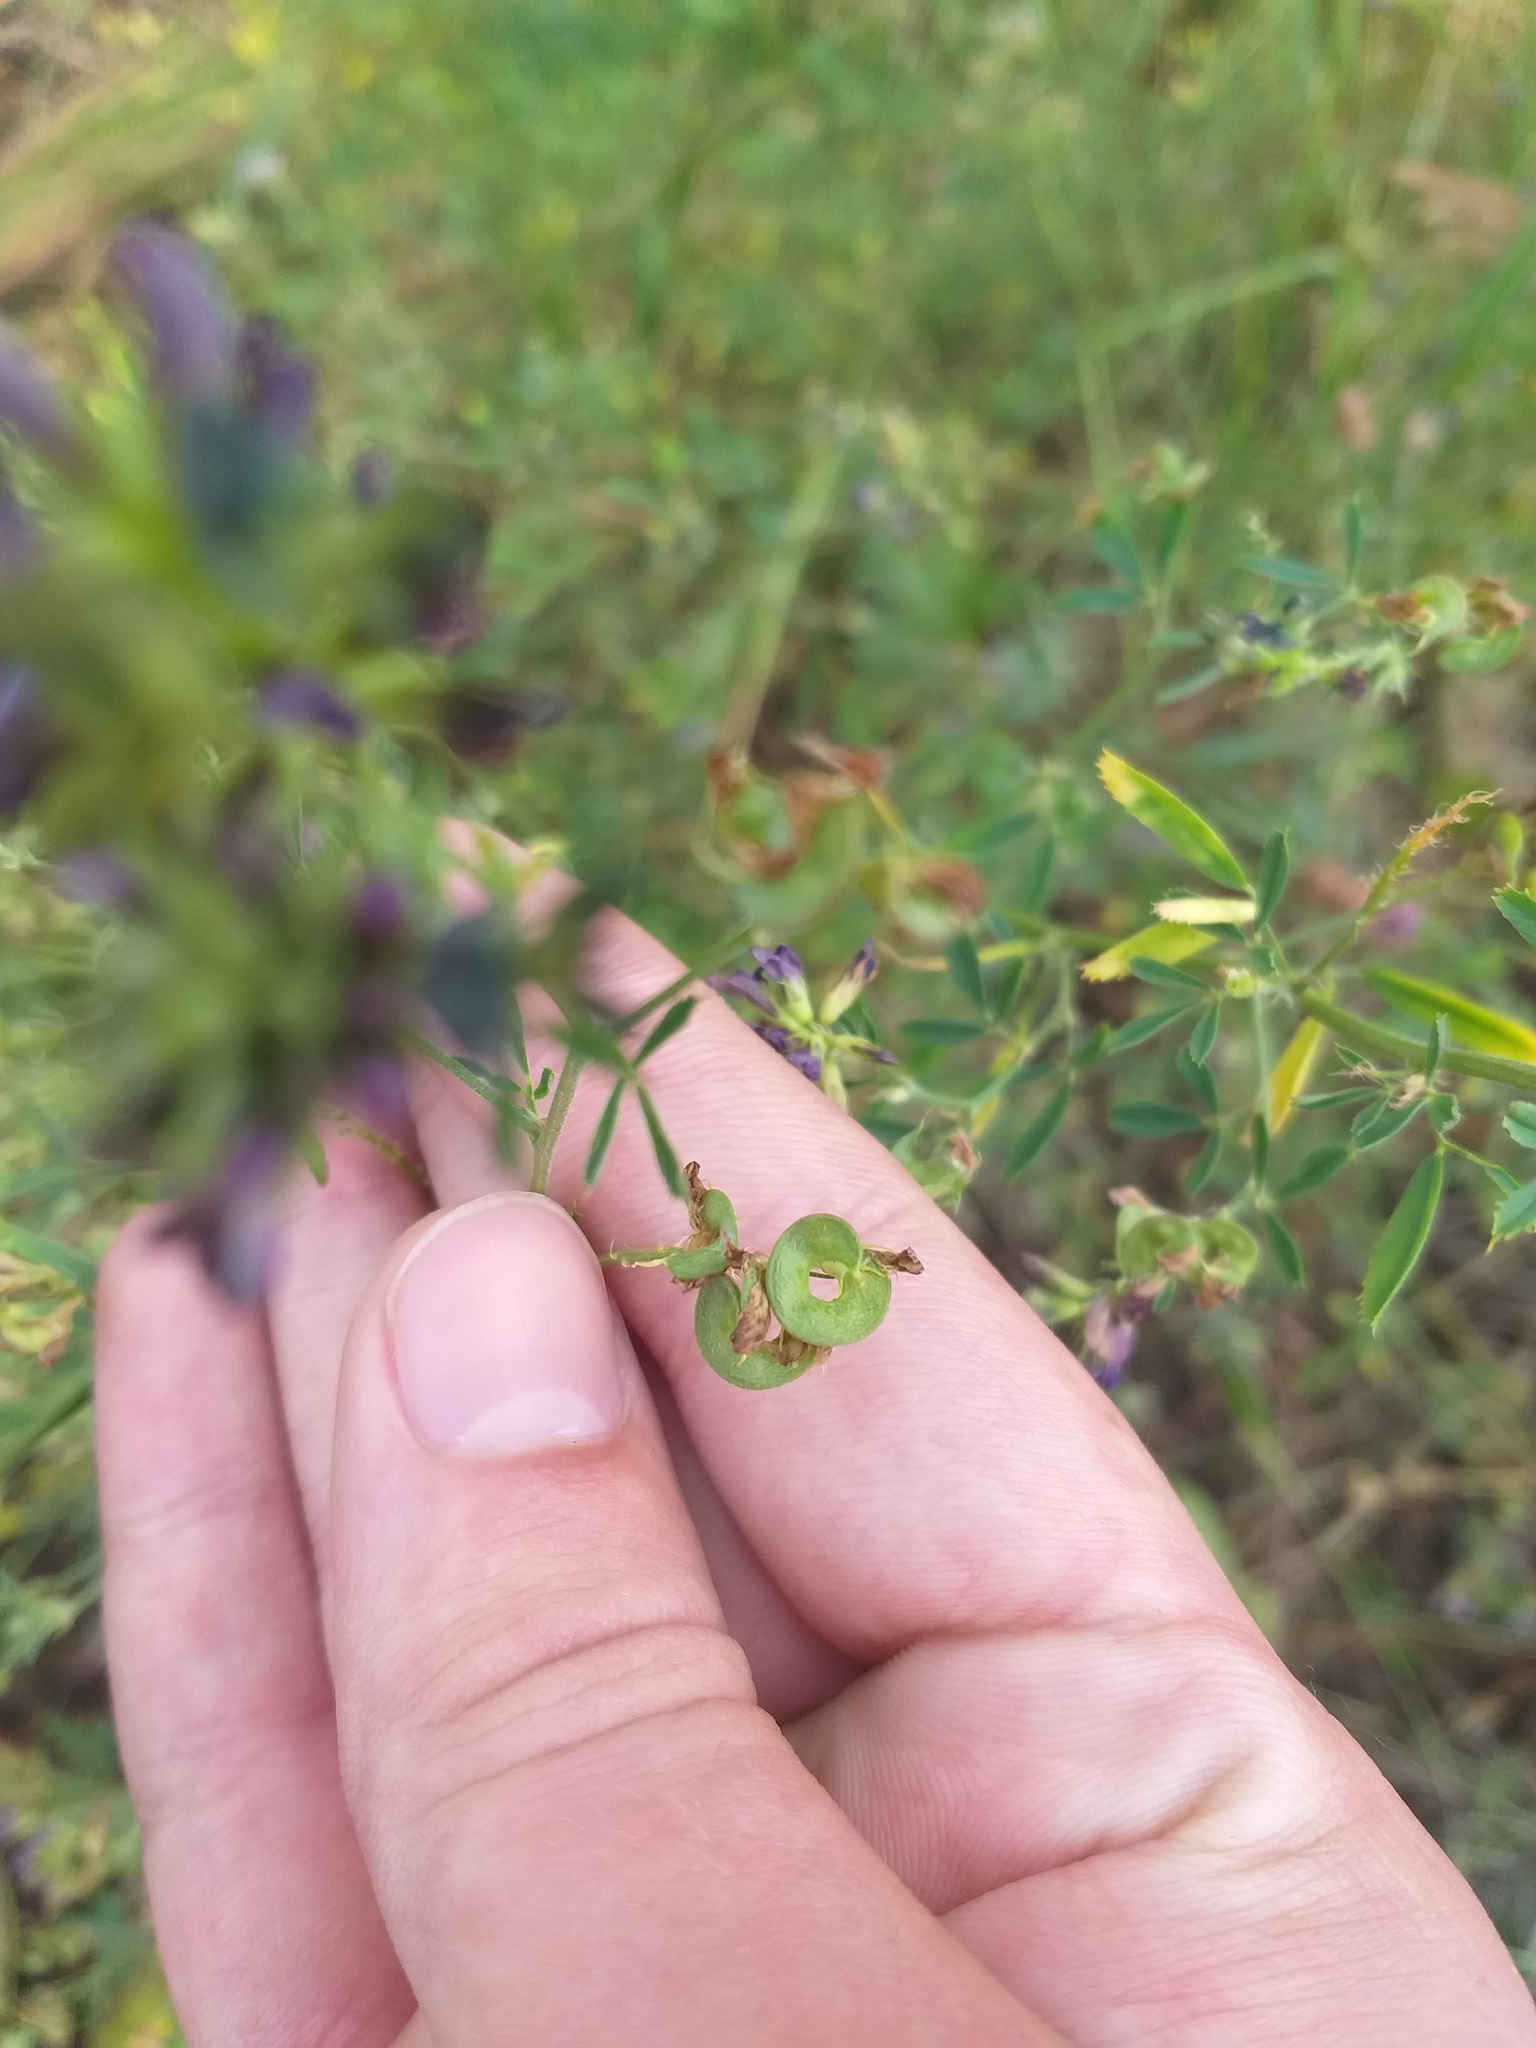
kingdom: Plantae
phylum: Tracheophyta
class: Magnoliopsida
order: Fabales
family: Fabaceae
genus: Medicago
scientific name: Medicago varia
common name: Sand lucerne
